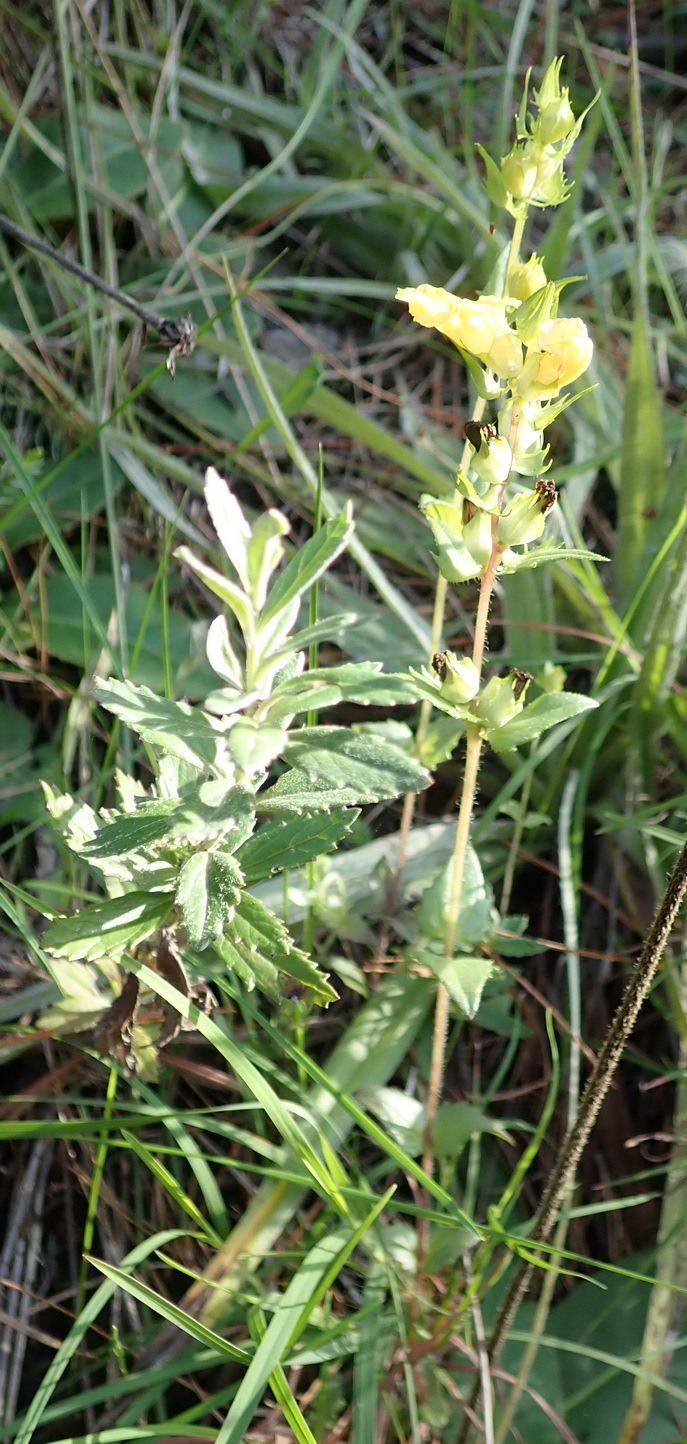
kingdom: Plantae
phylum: Tracheophyta
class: Magnoliopsida
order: Lamiales
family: Orobanchaceae
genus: Alectra
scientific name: Alectra sessiliflora
